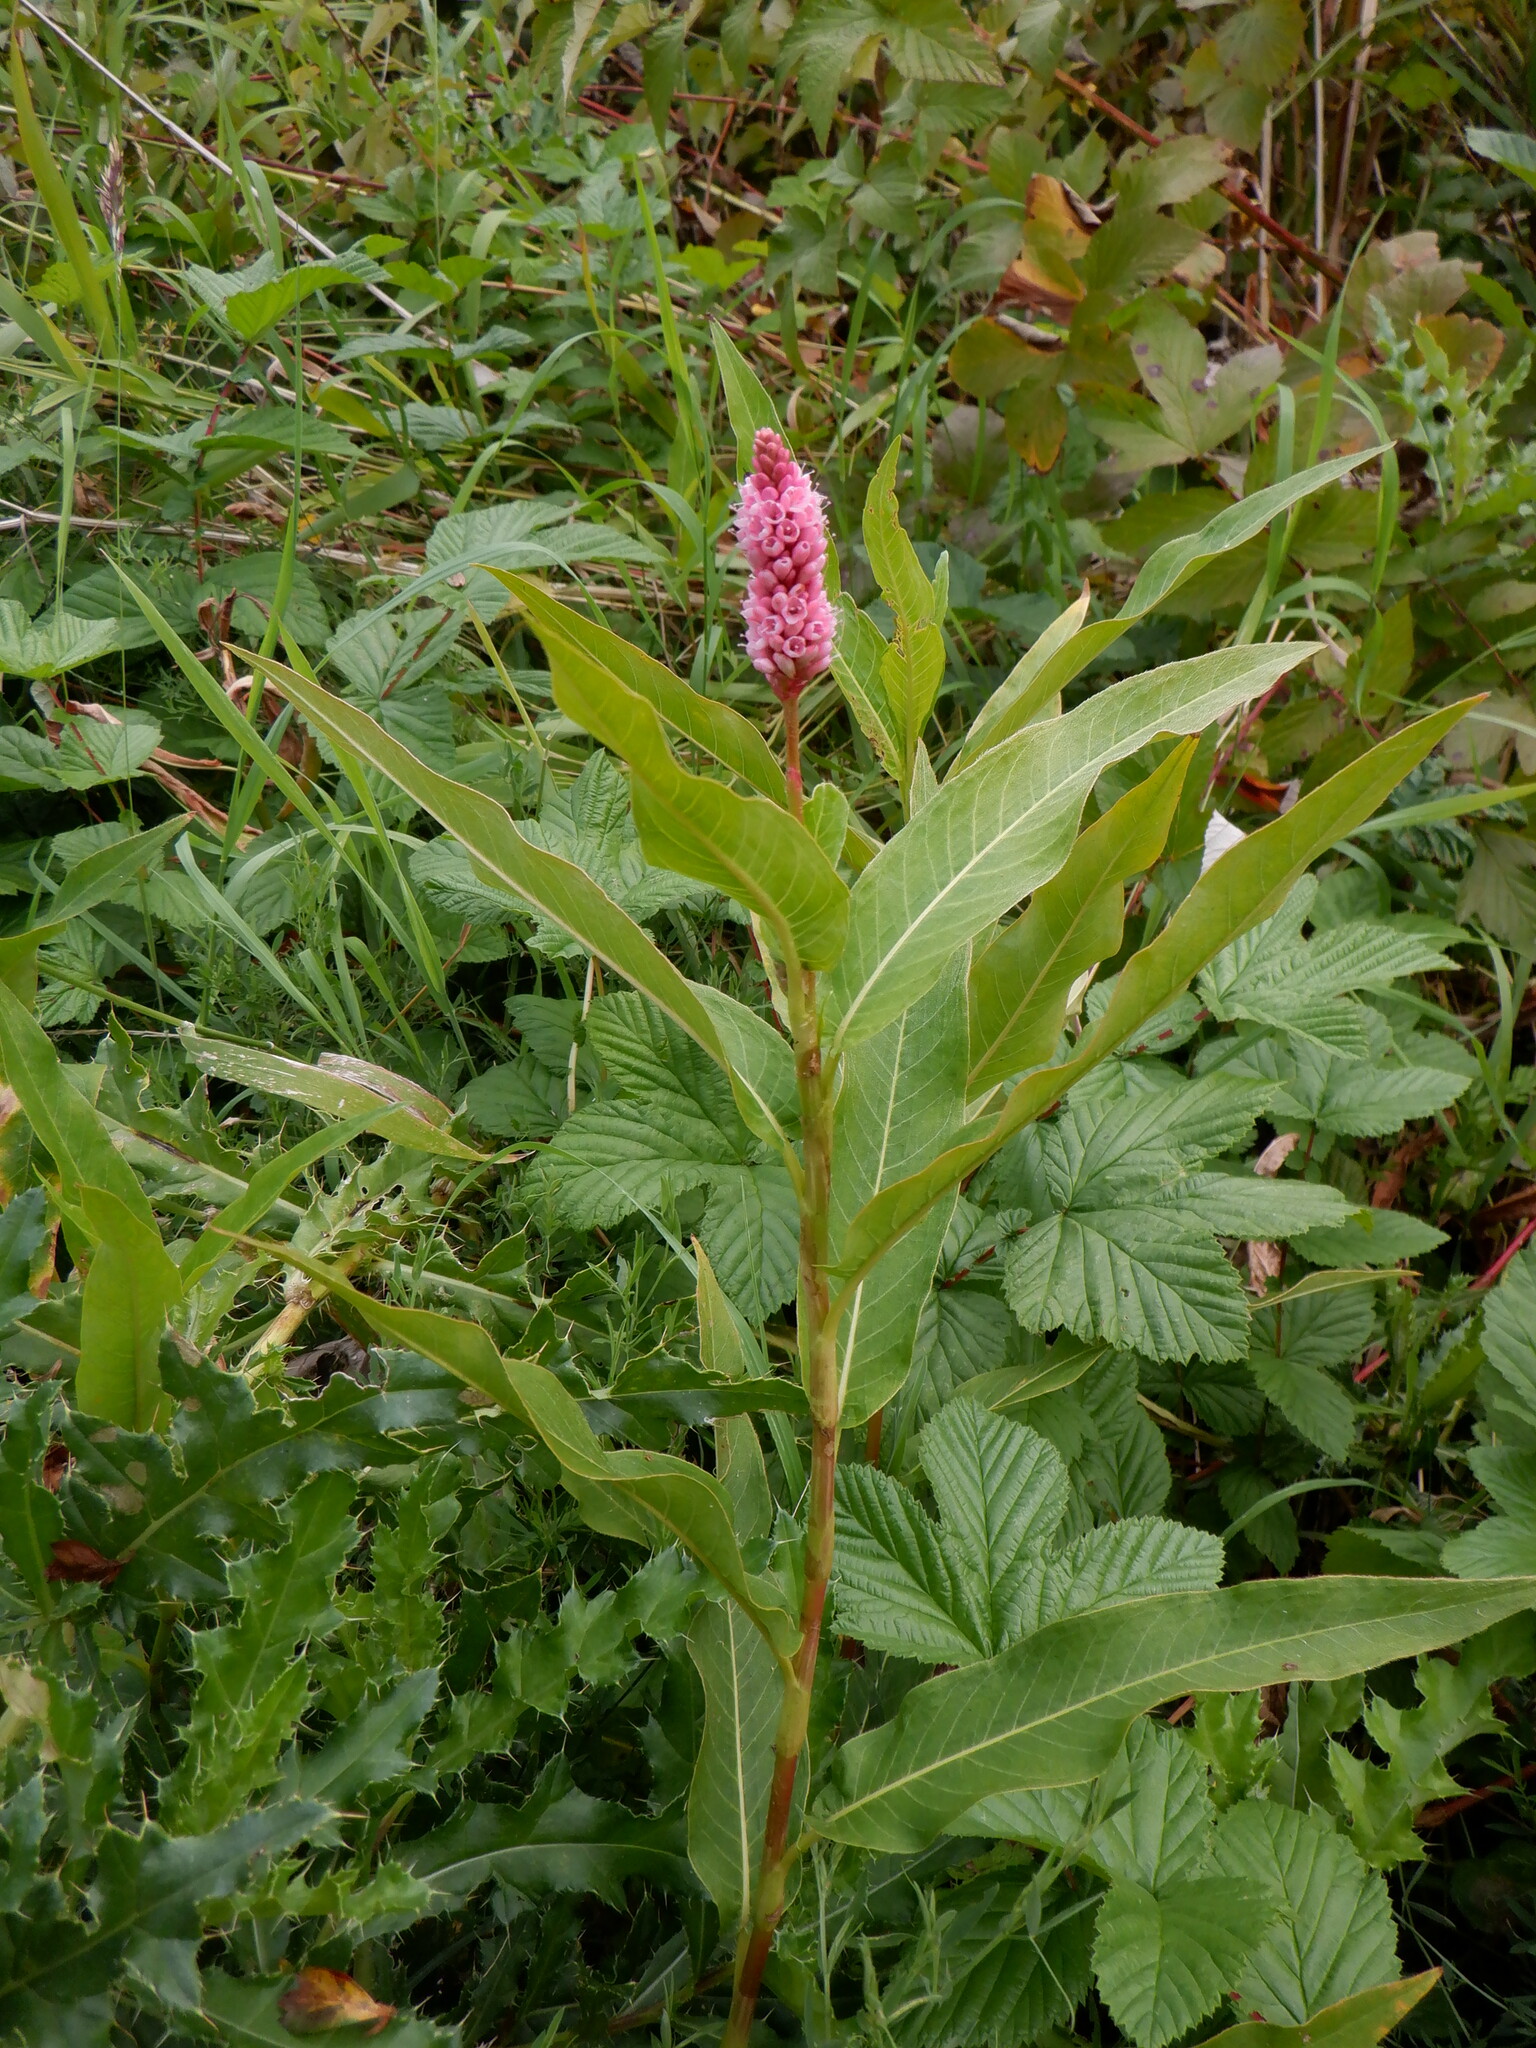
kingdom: Plantae
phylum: Tracheophyta
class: Magnoliopsida
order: Caryophyllales
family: Polygonaceae
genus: Persicaria
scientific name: Persicaria amphibia
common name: Amphibious bistort
